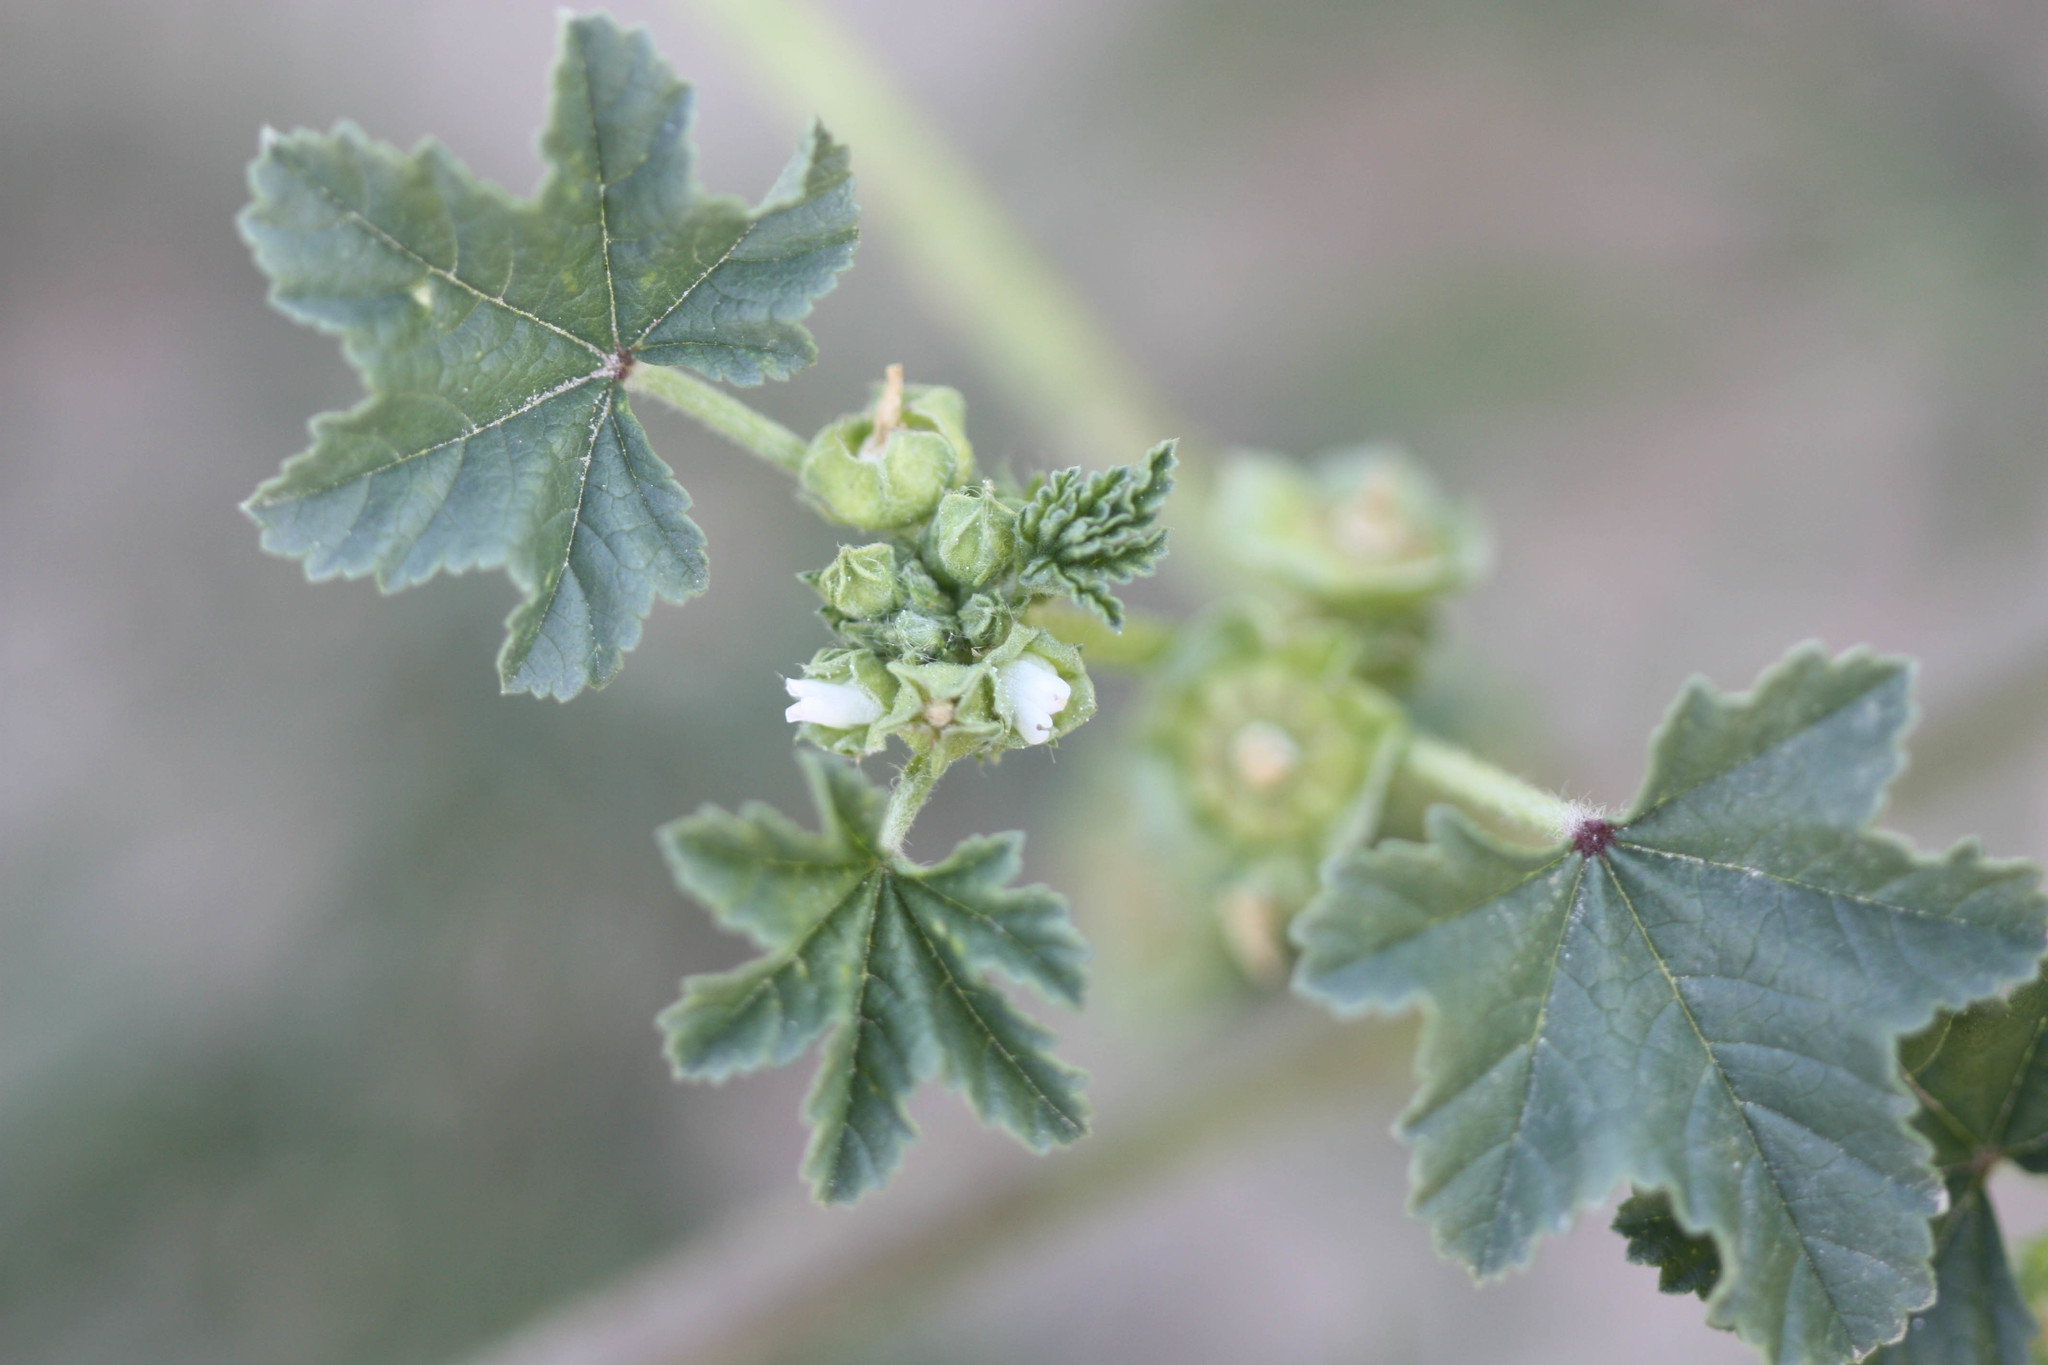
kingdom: Plantae
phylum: Tracheophyta
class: Magnoliopsida
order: Malvales
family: Malvaceae
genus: Malva
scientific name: Malva parviflora
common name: Least mallow
